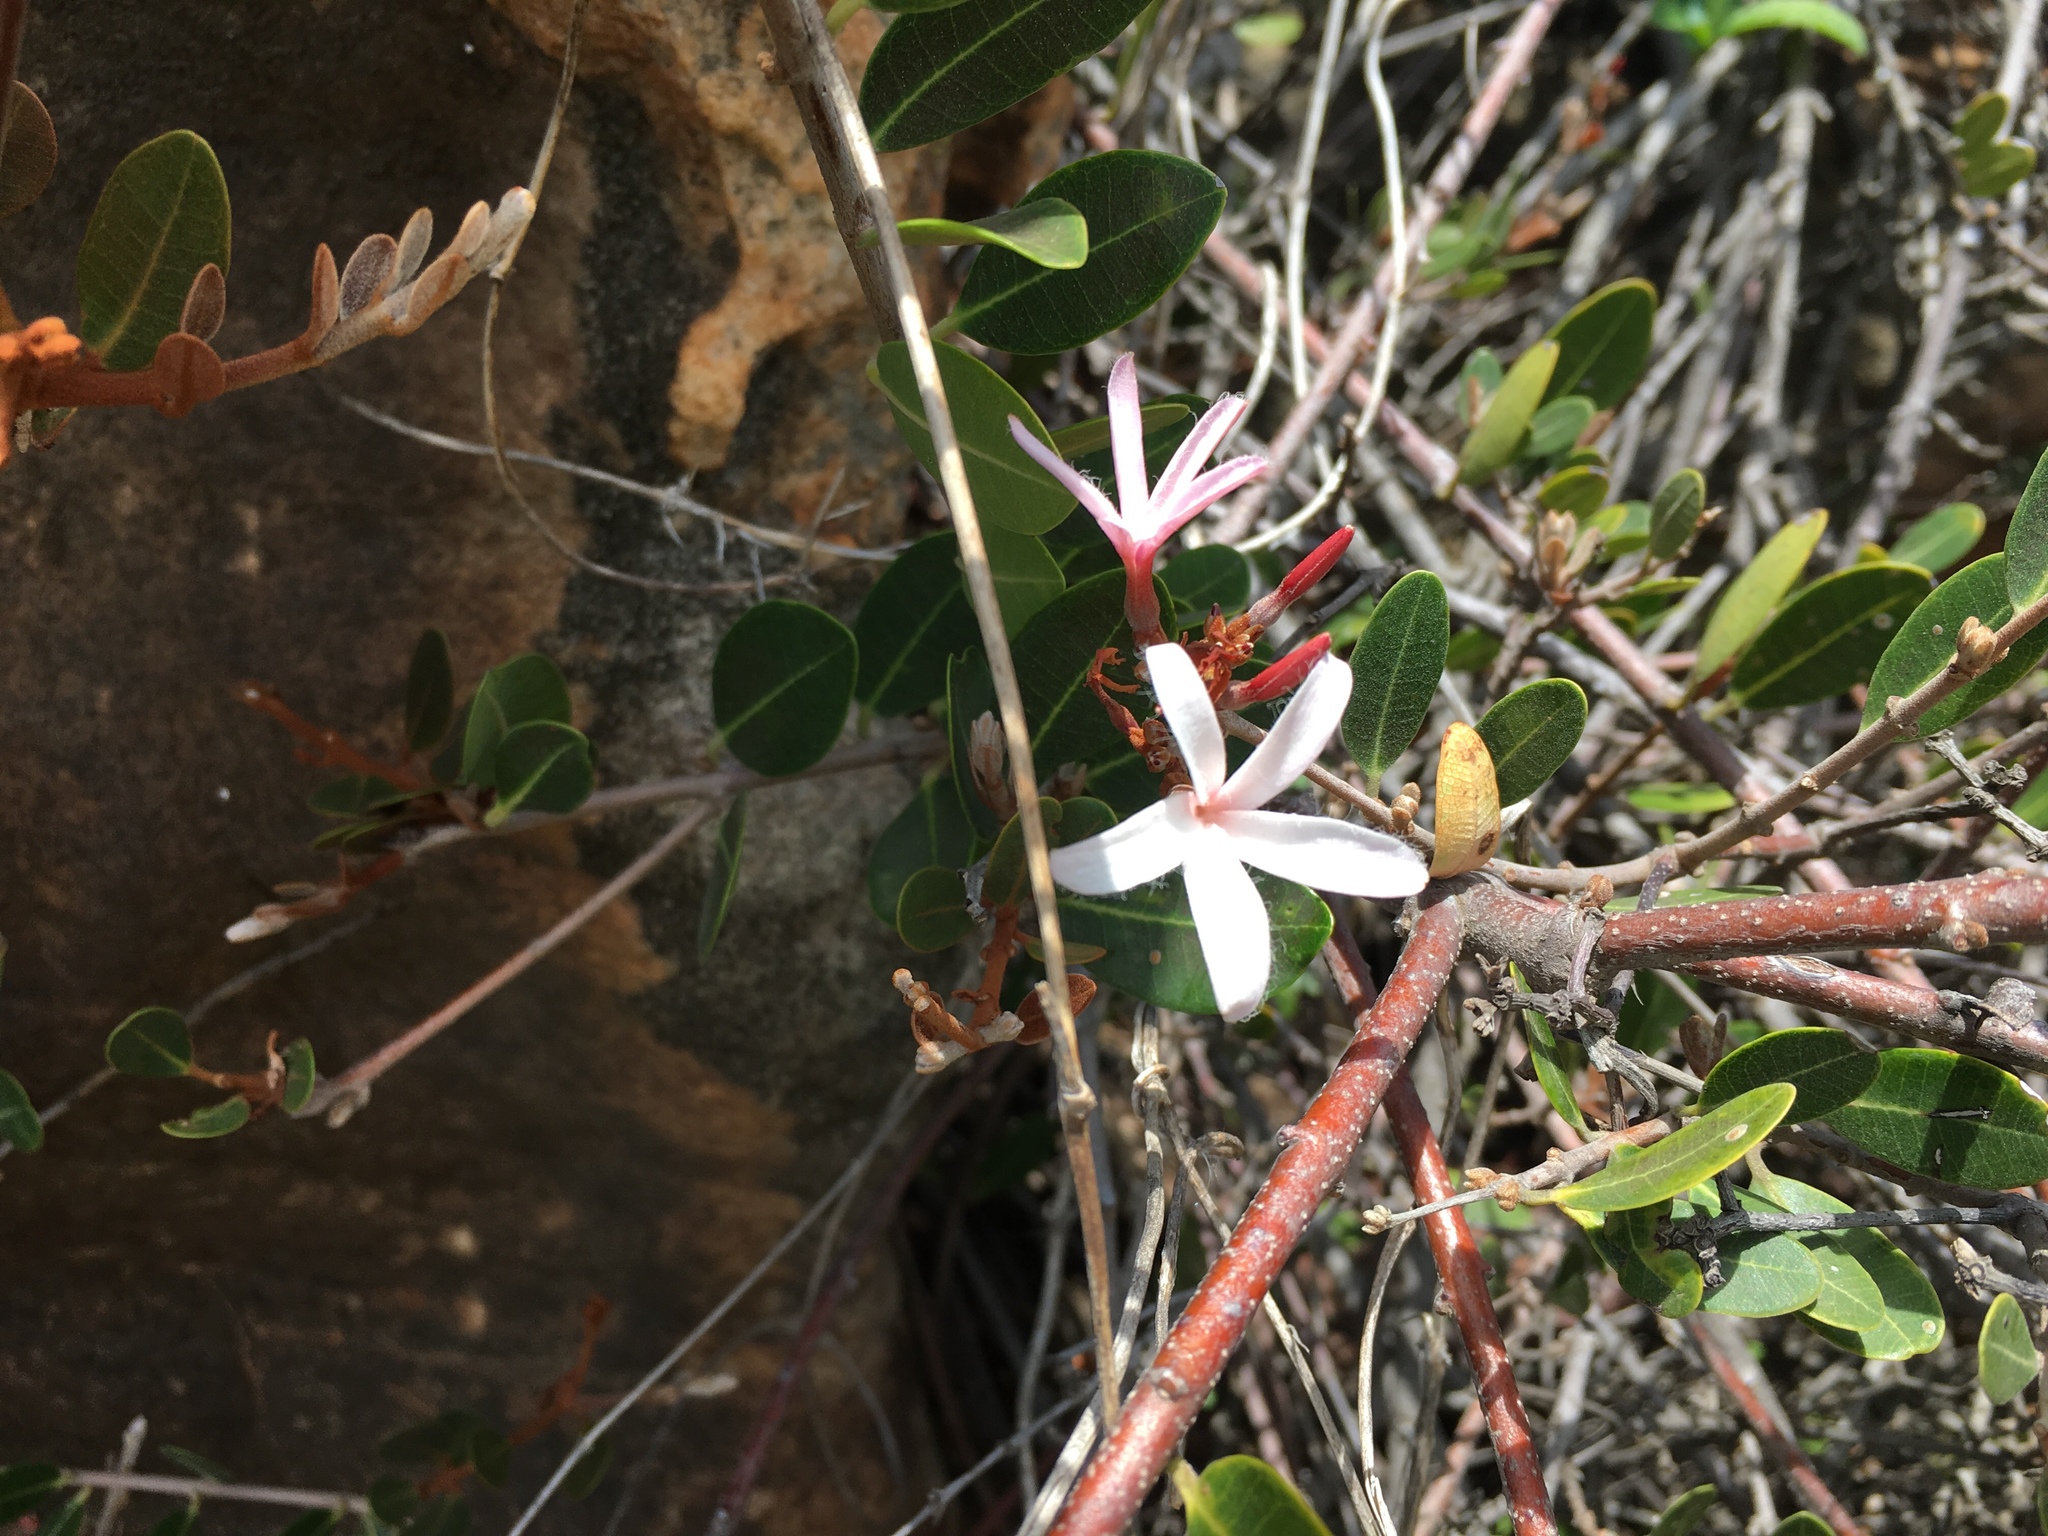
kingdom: Plantae
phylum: Tracheophyta
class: Magnoliopsida
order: Gentianales
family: Apocynaceae
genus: Ancylobothrys
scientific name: Ancylobothrys capensis
